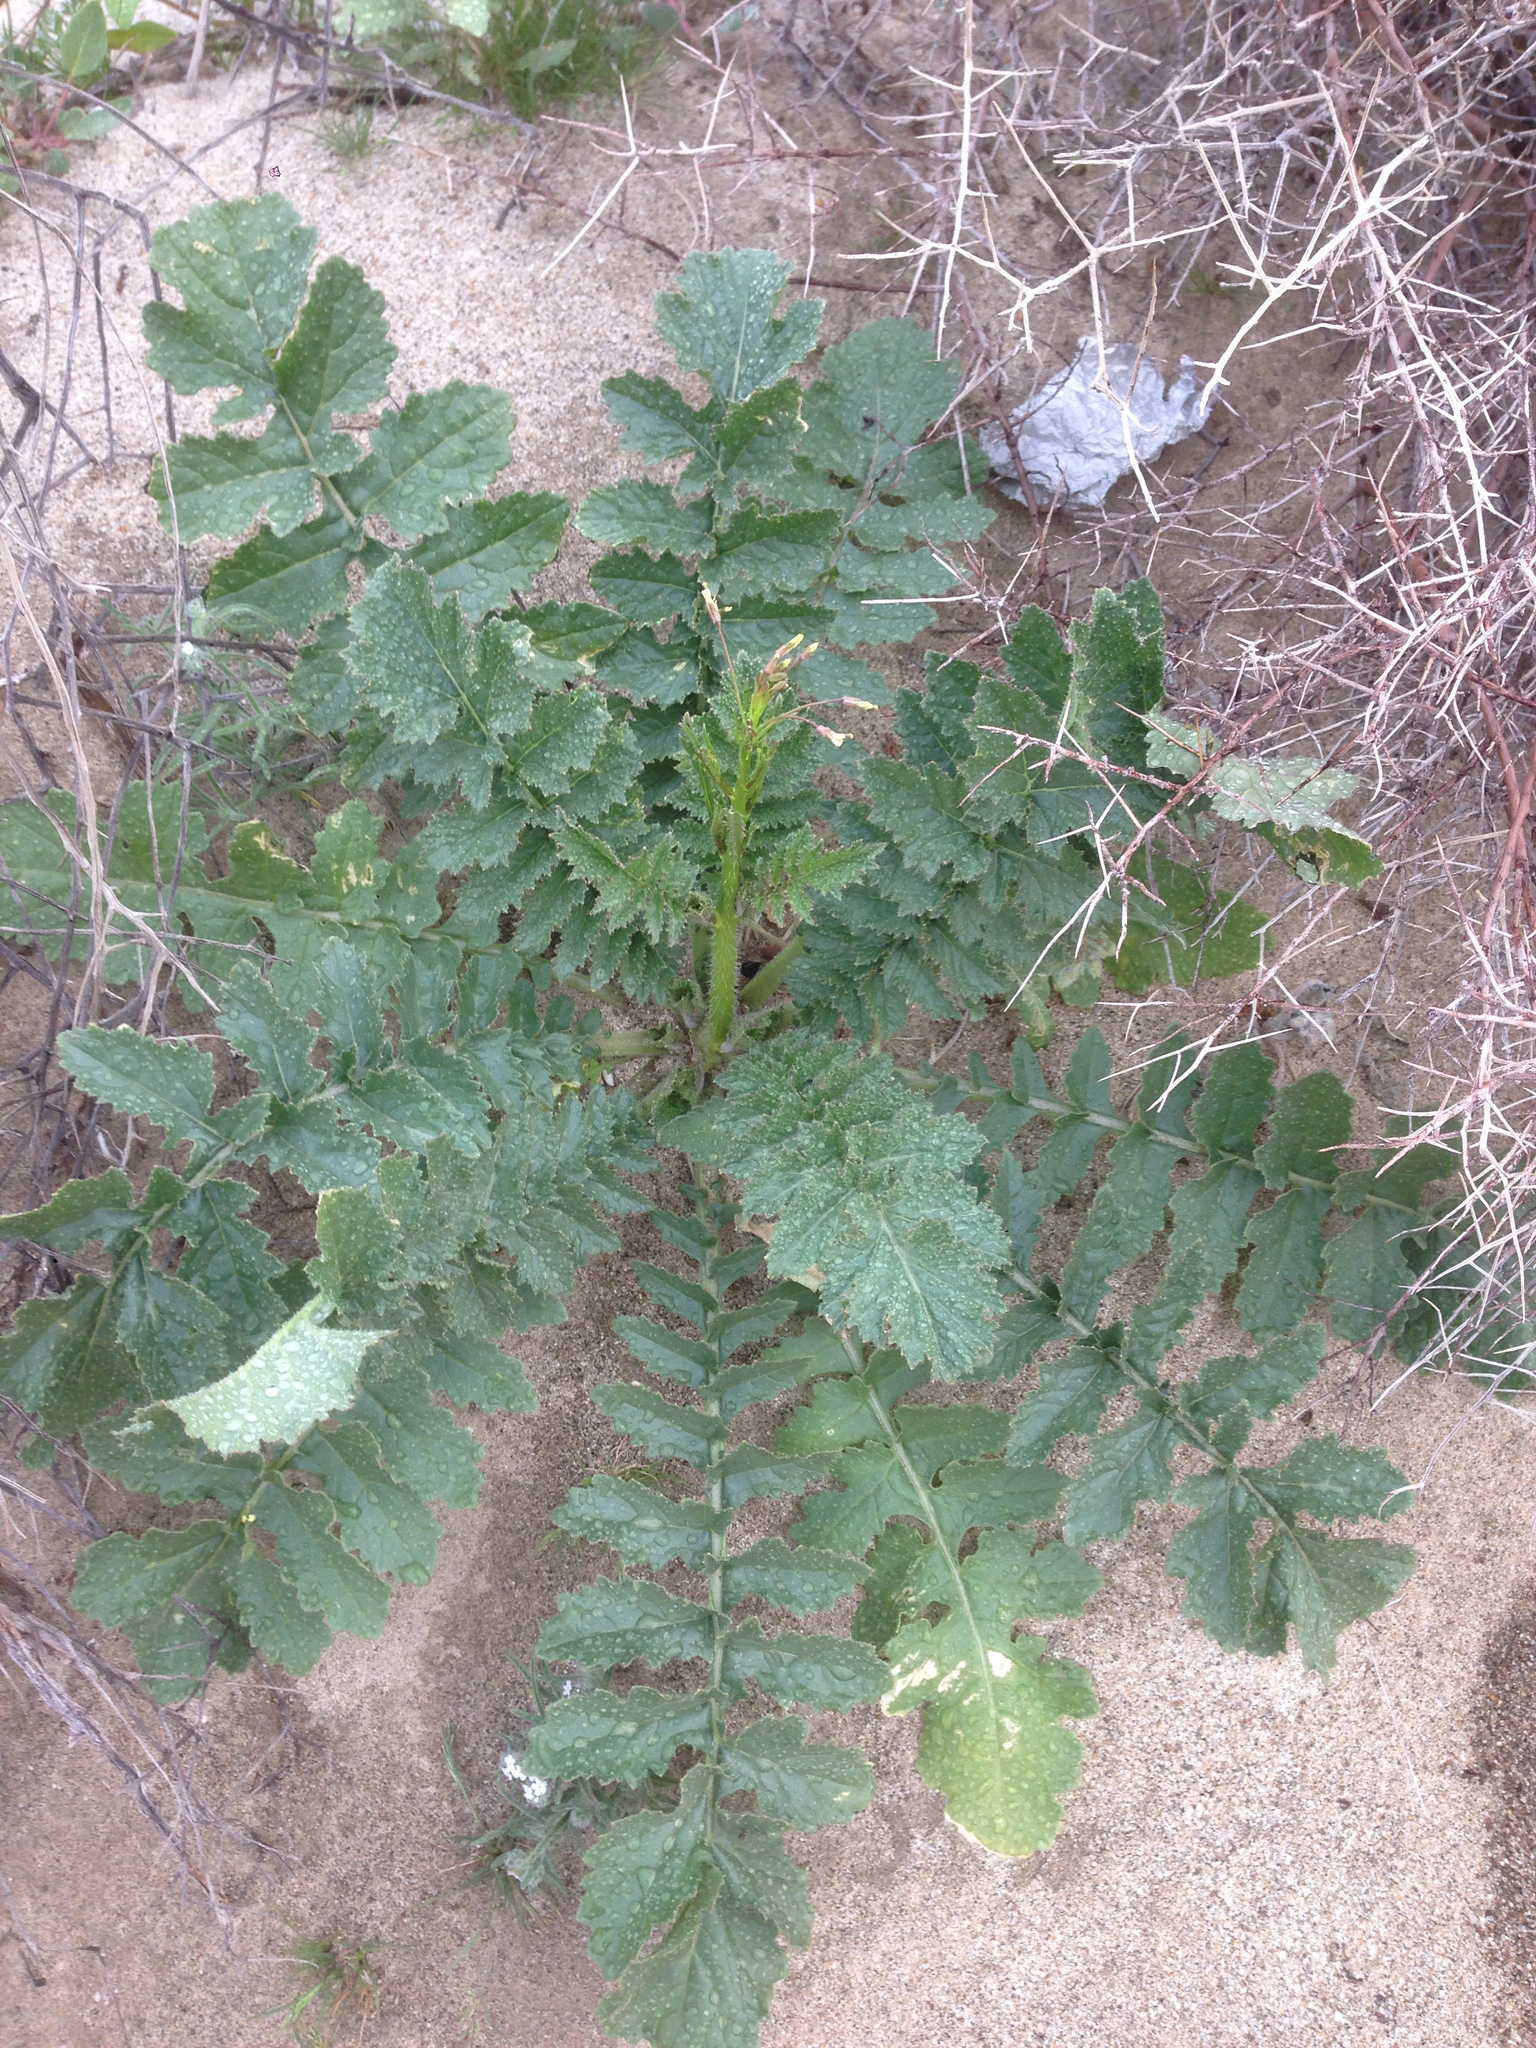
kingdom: Plantae
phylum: Tracheophyta
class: Magnoliopsida
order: Brassicales
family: Brassicaceae
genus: Brassica
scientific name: Brassica tournefortii
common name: Pale cabbage
